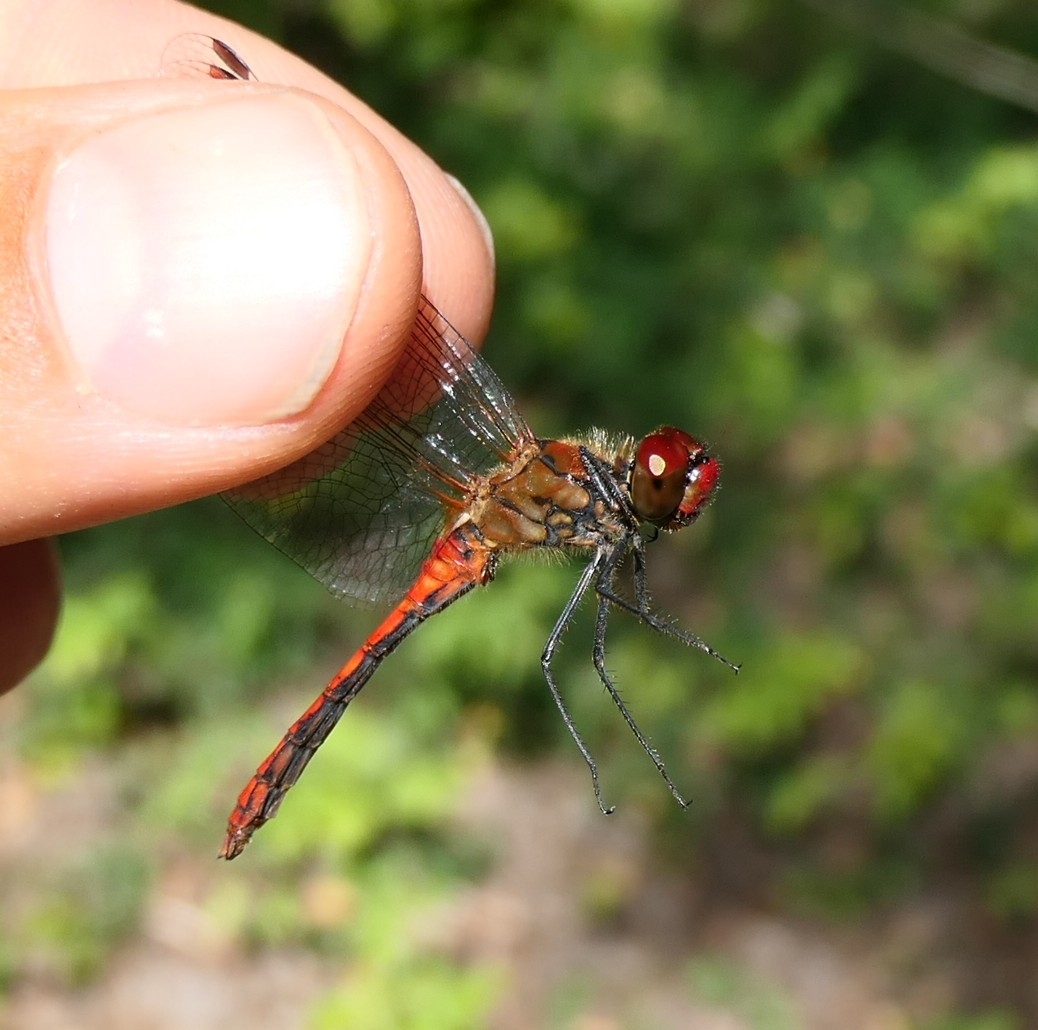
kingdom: Animalia
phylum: Arthropoda
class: Insecta
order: Odonata
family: Libellulidae
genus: Sympetrum
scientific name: Sympetrum sanguineum
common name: Ruddy darter
